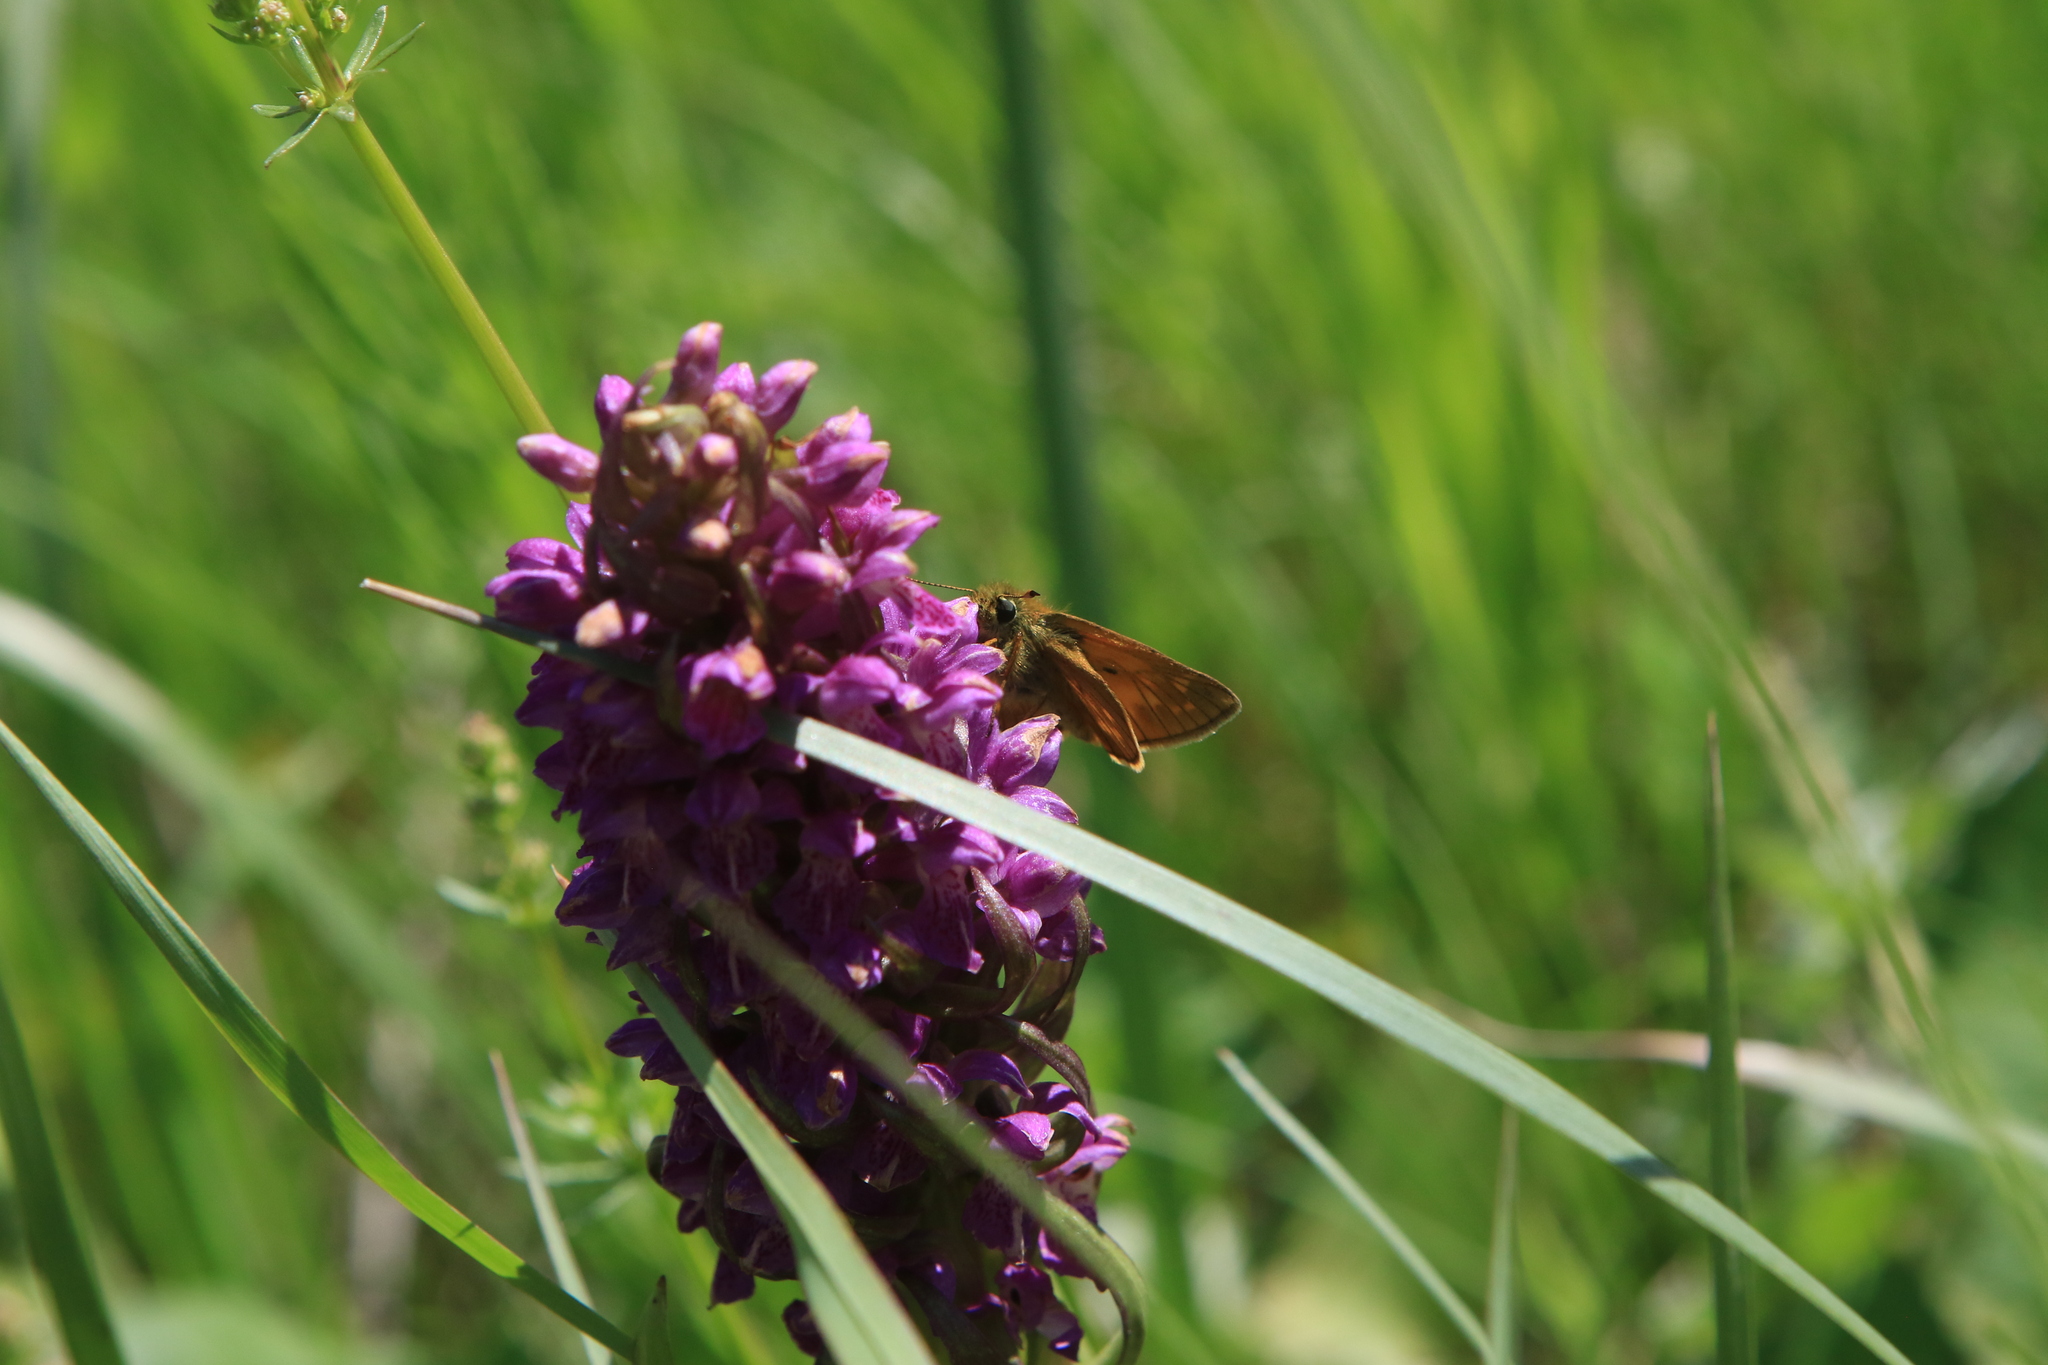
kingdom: Animalia
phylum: Arthropoda
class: Insecta
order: Lepidoptera
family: Hesperiidae
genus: Ochlodes
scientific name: Ochlodes venata
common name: Large skipper
